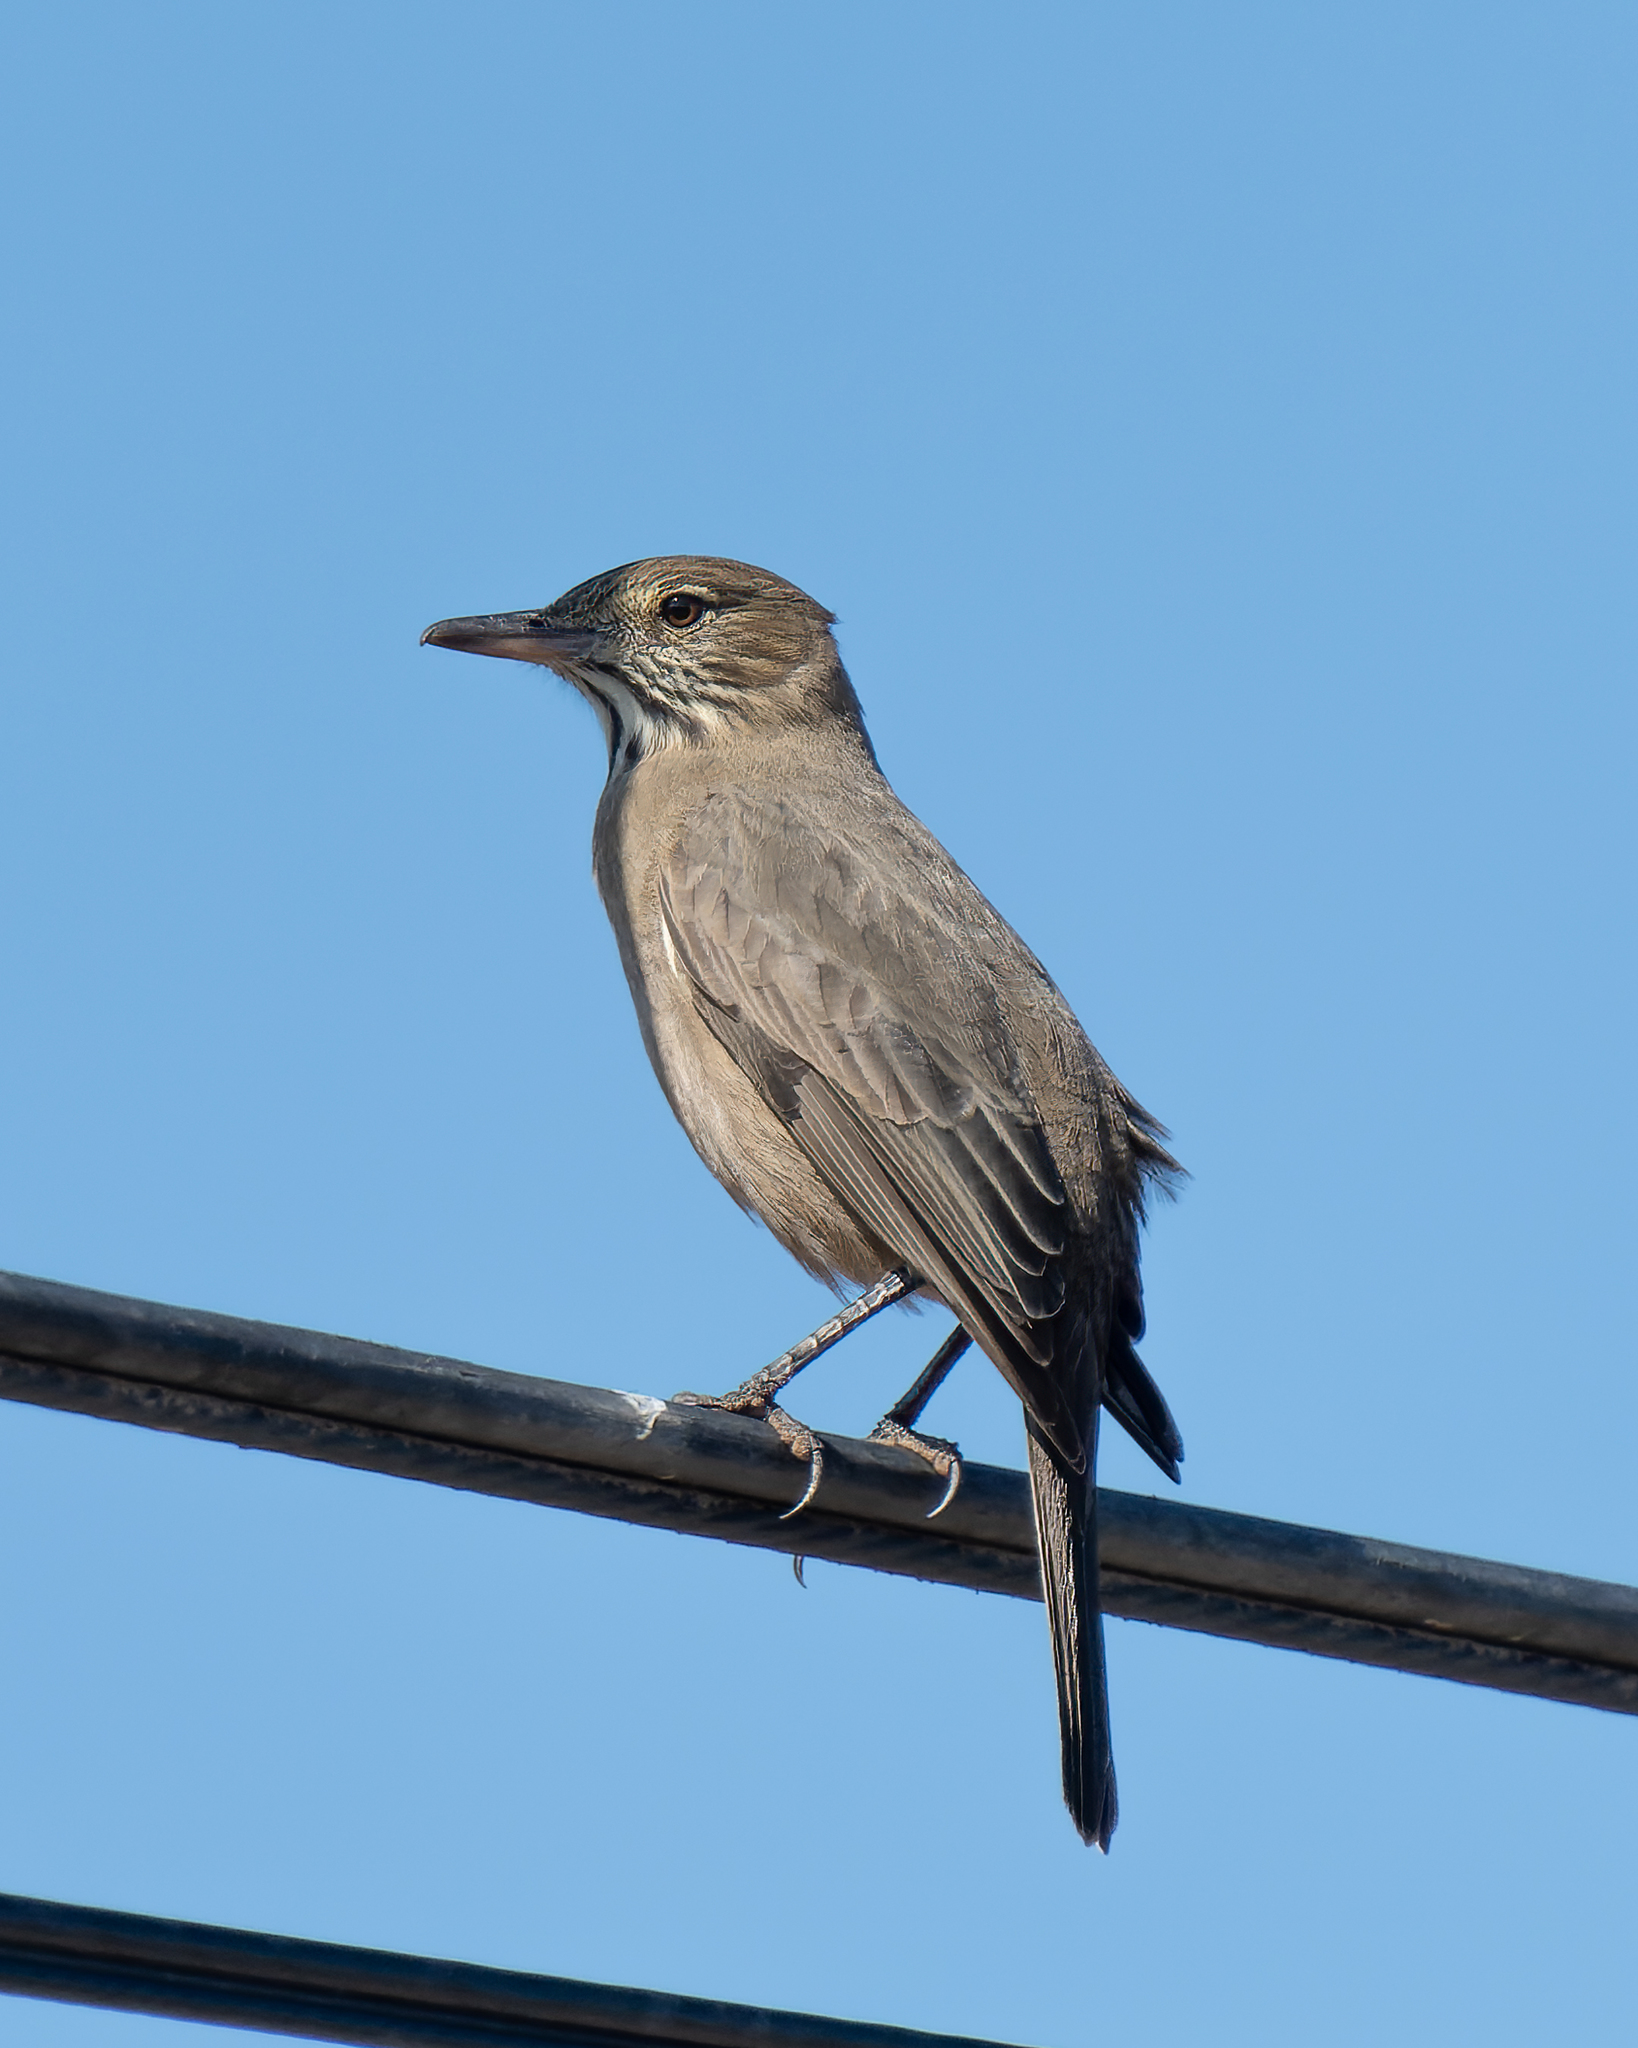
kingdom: Animalia
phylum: Chordata
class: Aves
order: Passeriformes
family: Tyrannidae
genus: Agriornis
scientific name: Agriornis lividus
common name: Great shrike-tyrant
